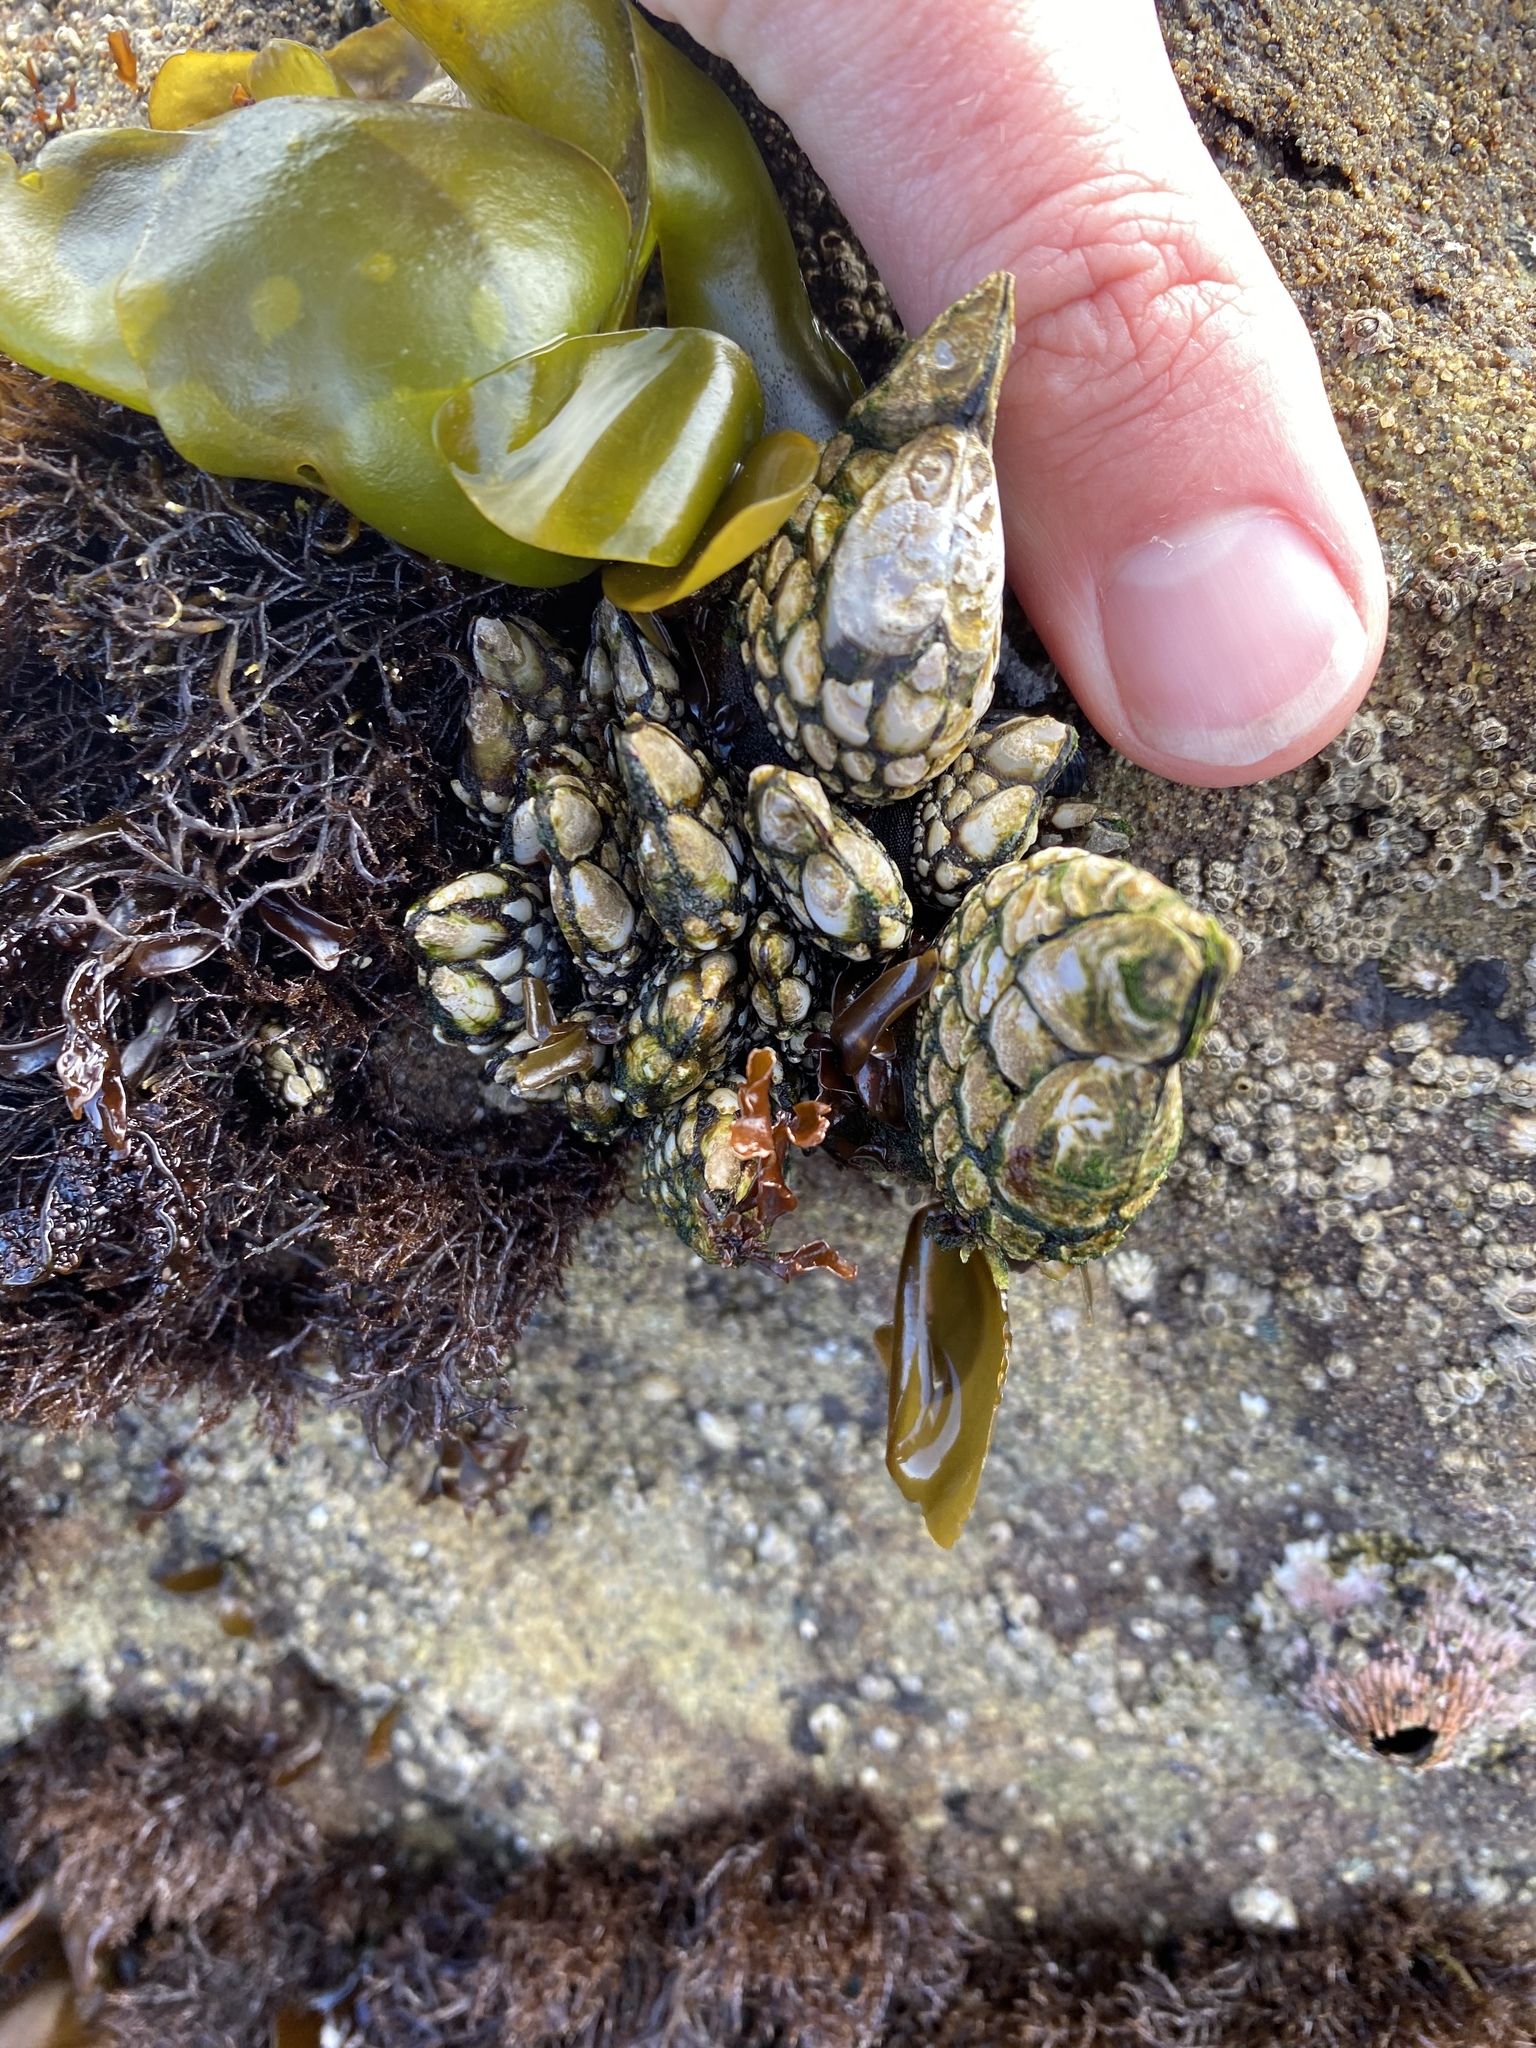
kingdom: Animalia
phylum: Arthropoda
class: Maxillopoda
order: Pedunculata
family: Pollicipedidae
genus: Pollicipes
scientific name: Pollicipes polymerus
